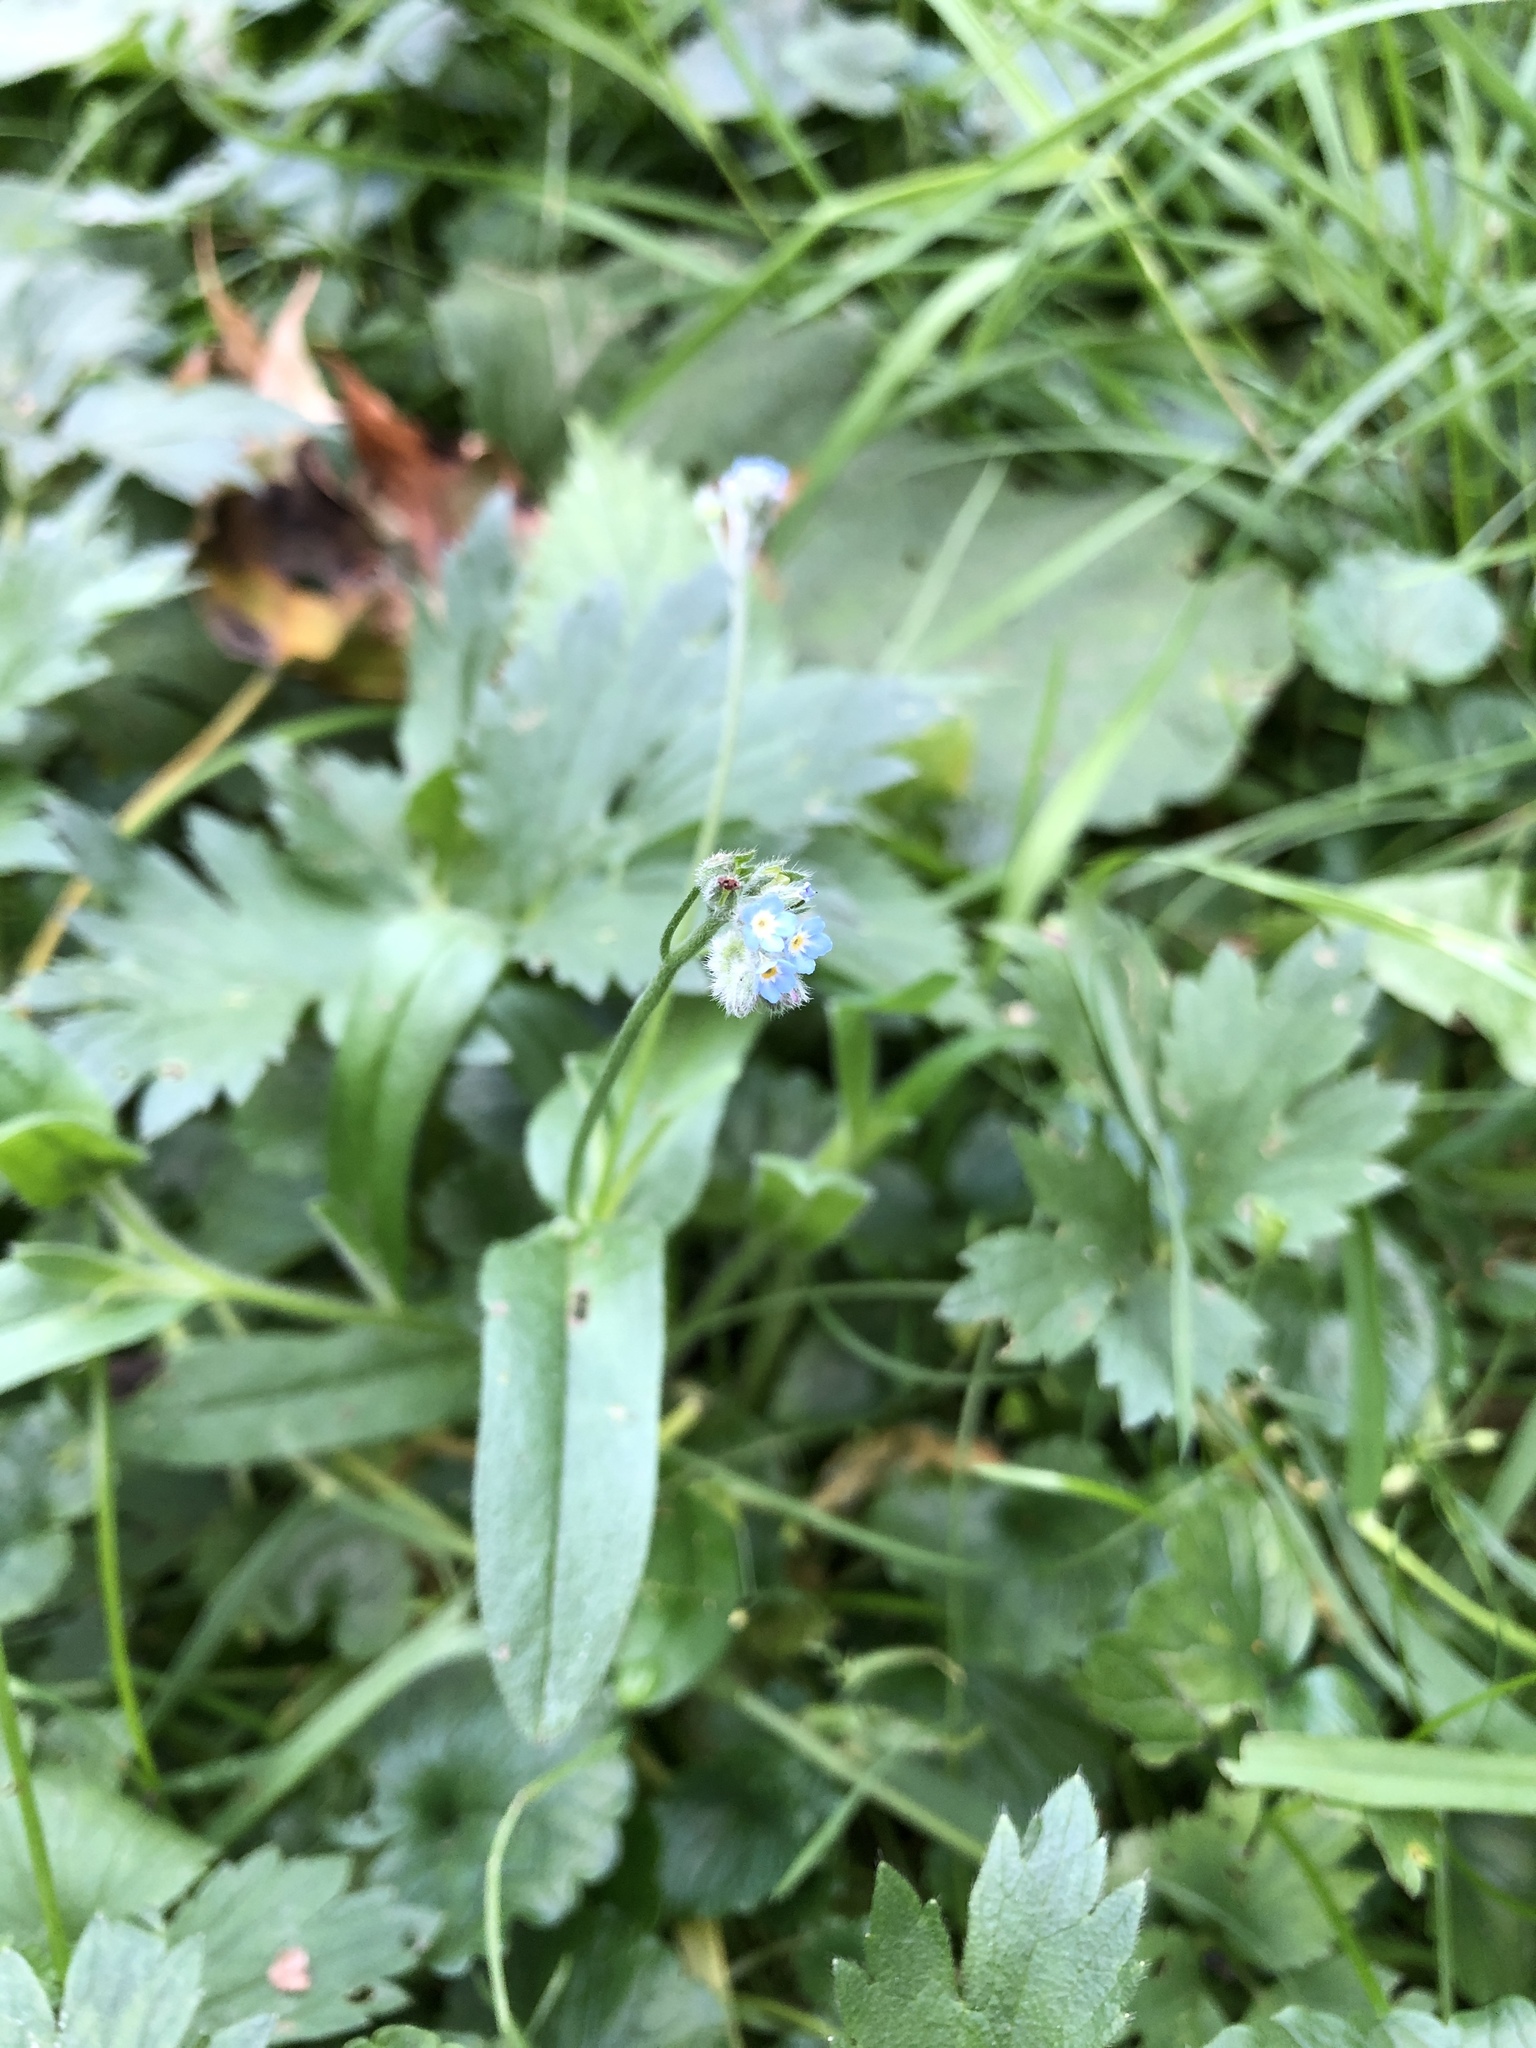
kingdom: Plantae
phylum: Tracheophyta
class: Magnoliopsida
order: Boraginales
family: Boraginaceae
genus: Myosotis
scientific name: Myosotis arvensis
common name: Field forget-me-not
